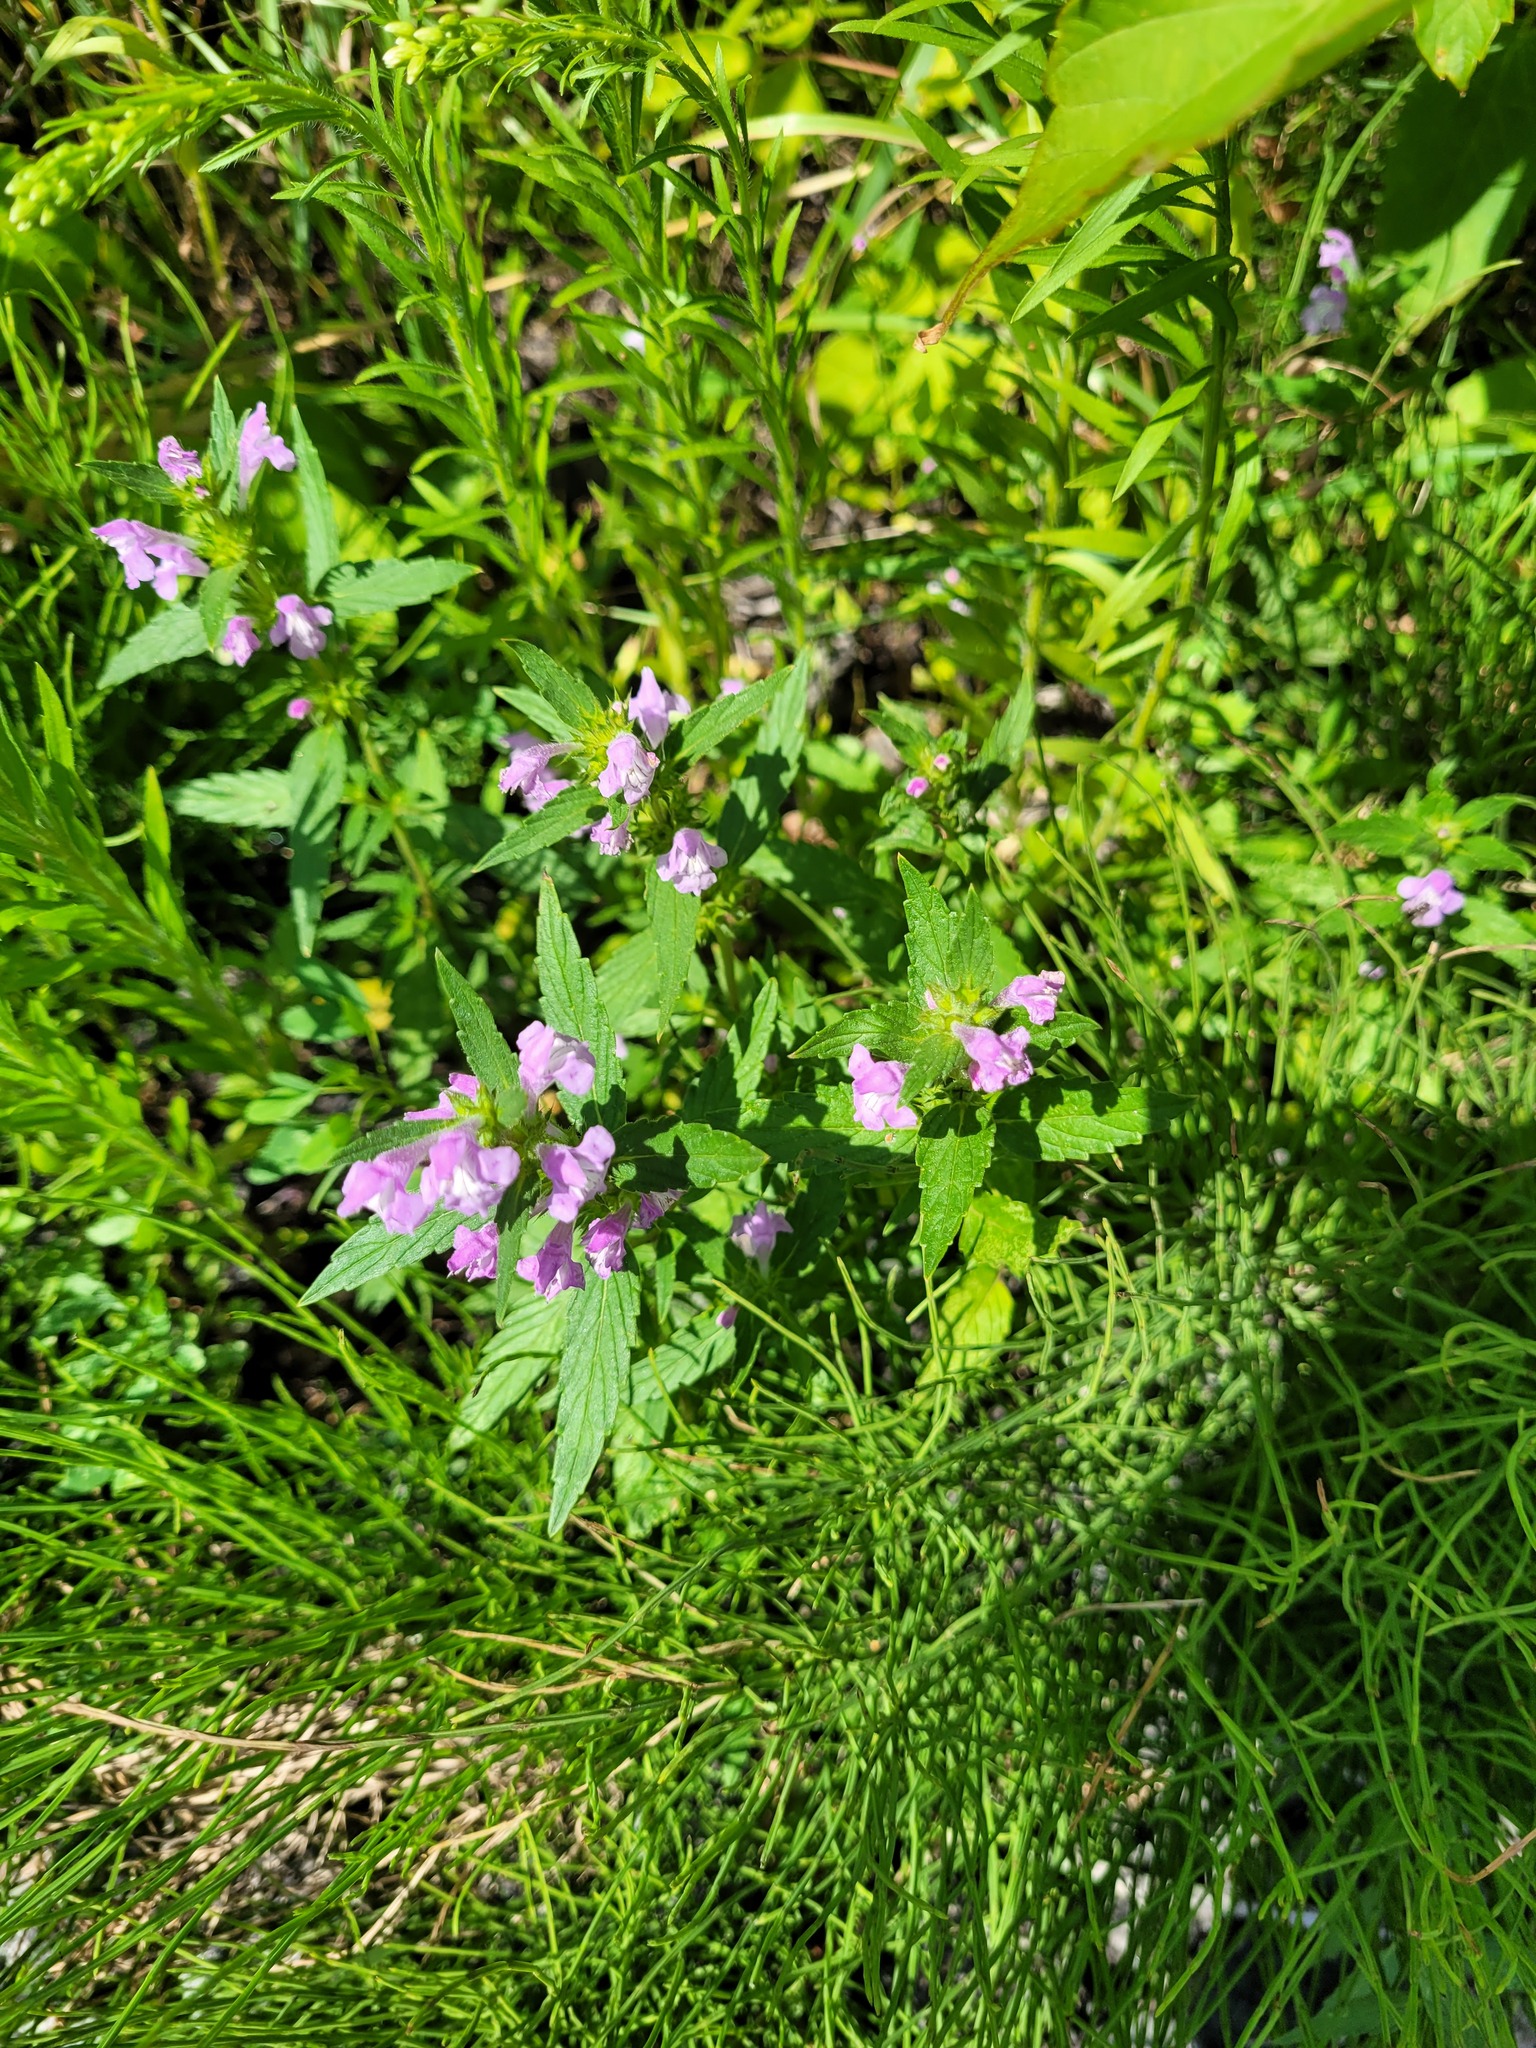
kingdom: Plantae
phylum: Tracheophyta
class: Magnoliopsida
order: Lamiales
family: Lamiaceae
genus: Galeopsis
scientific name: Galeopsis ladanum
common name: Broad-leaved hemp-nettle
